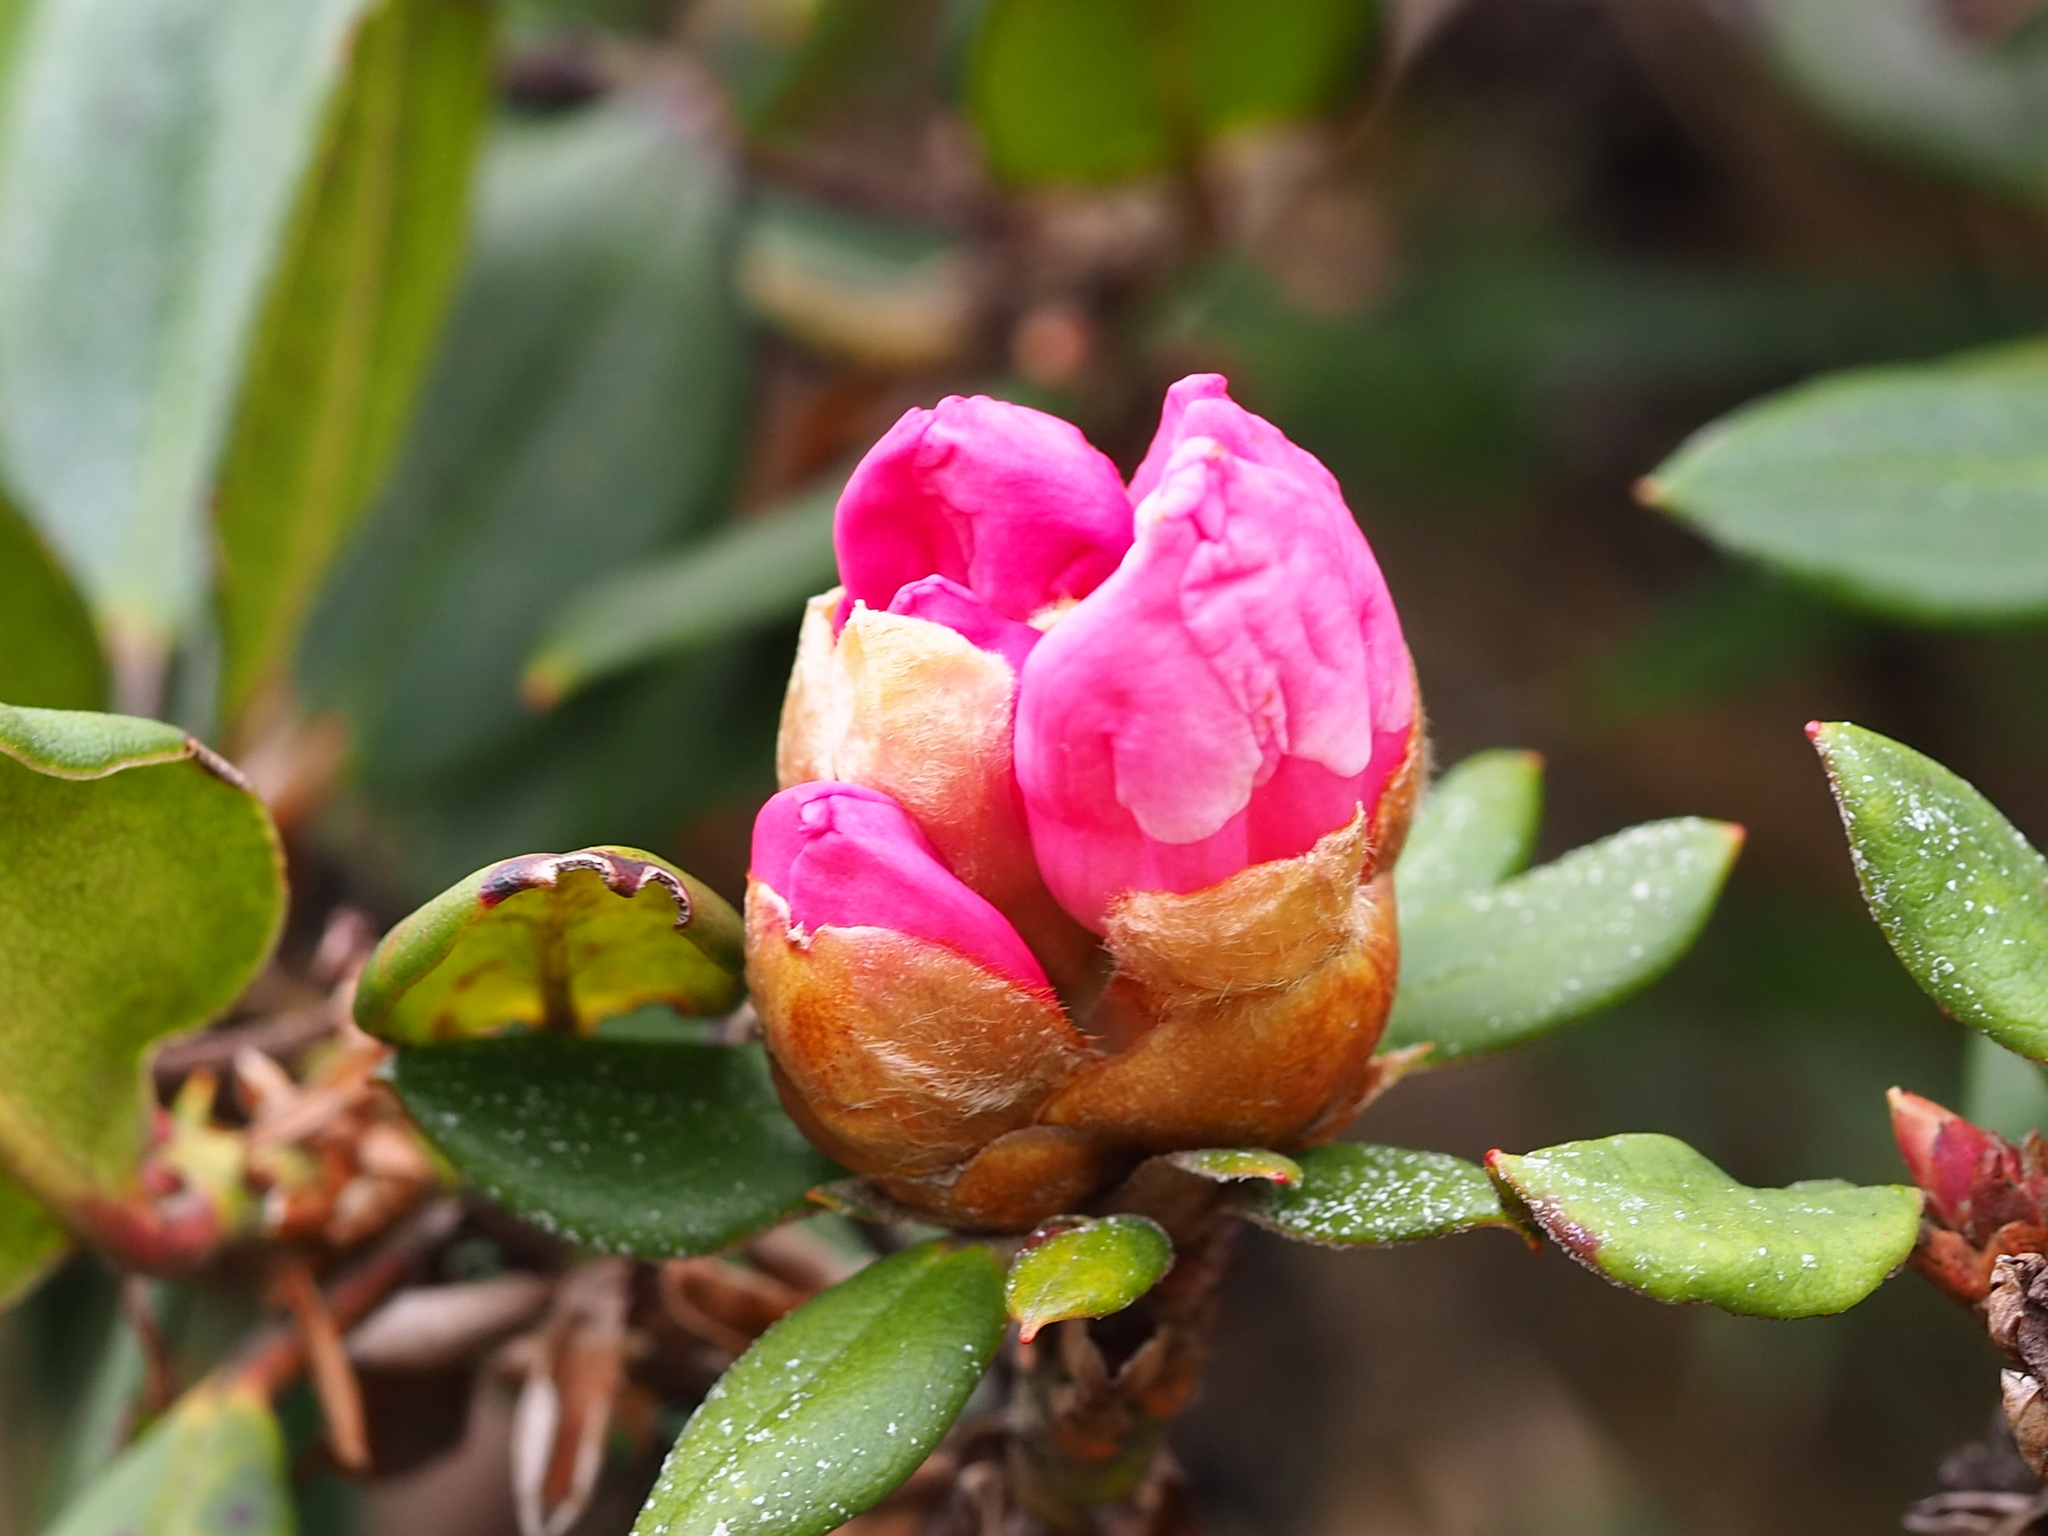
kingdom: Plantae
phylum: Tracheophyta
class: Magnoliopsida
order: Ericales
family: Ericaceae
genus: Rhododendron
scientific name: Rhododendron pseudochrysanthum
